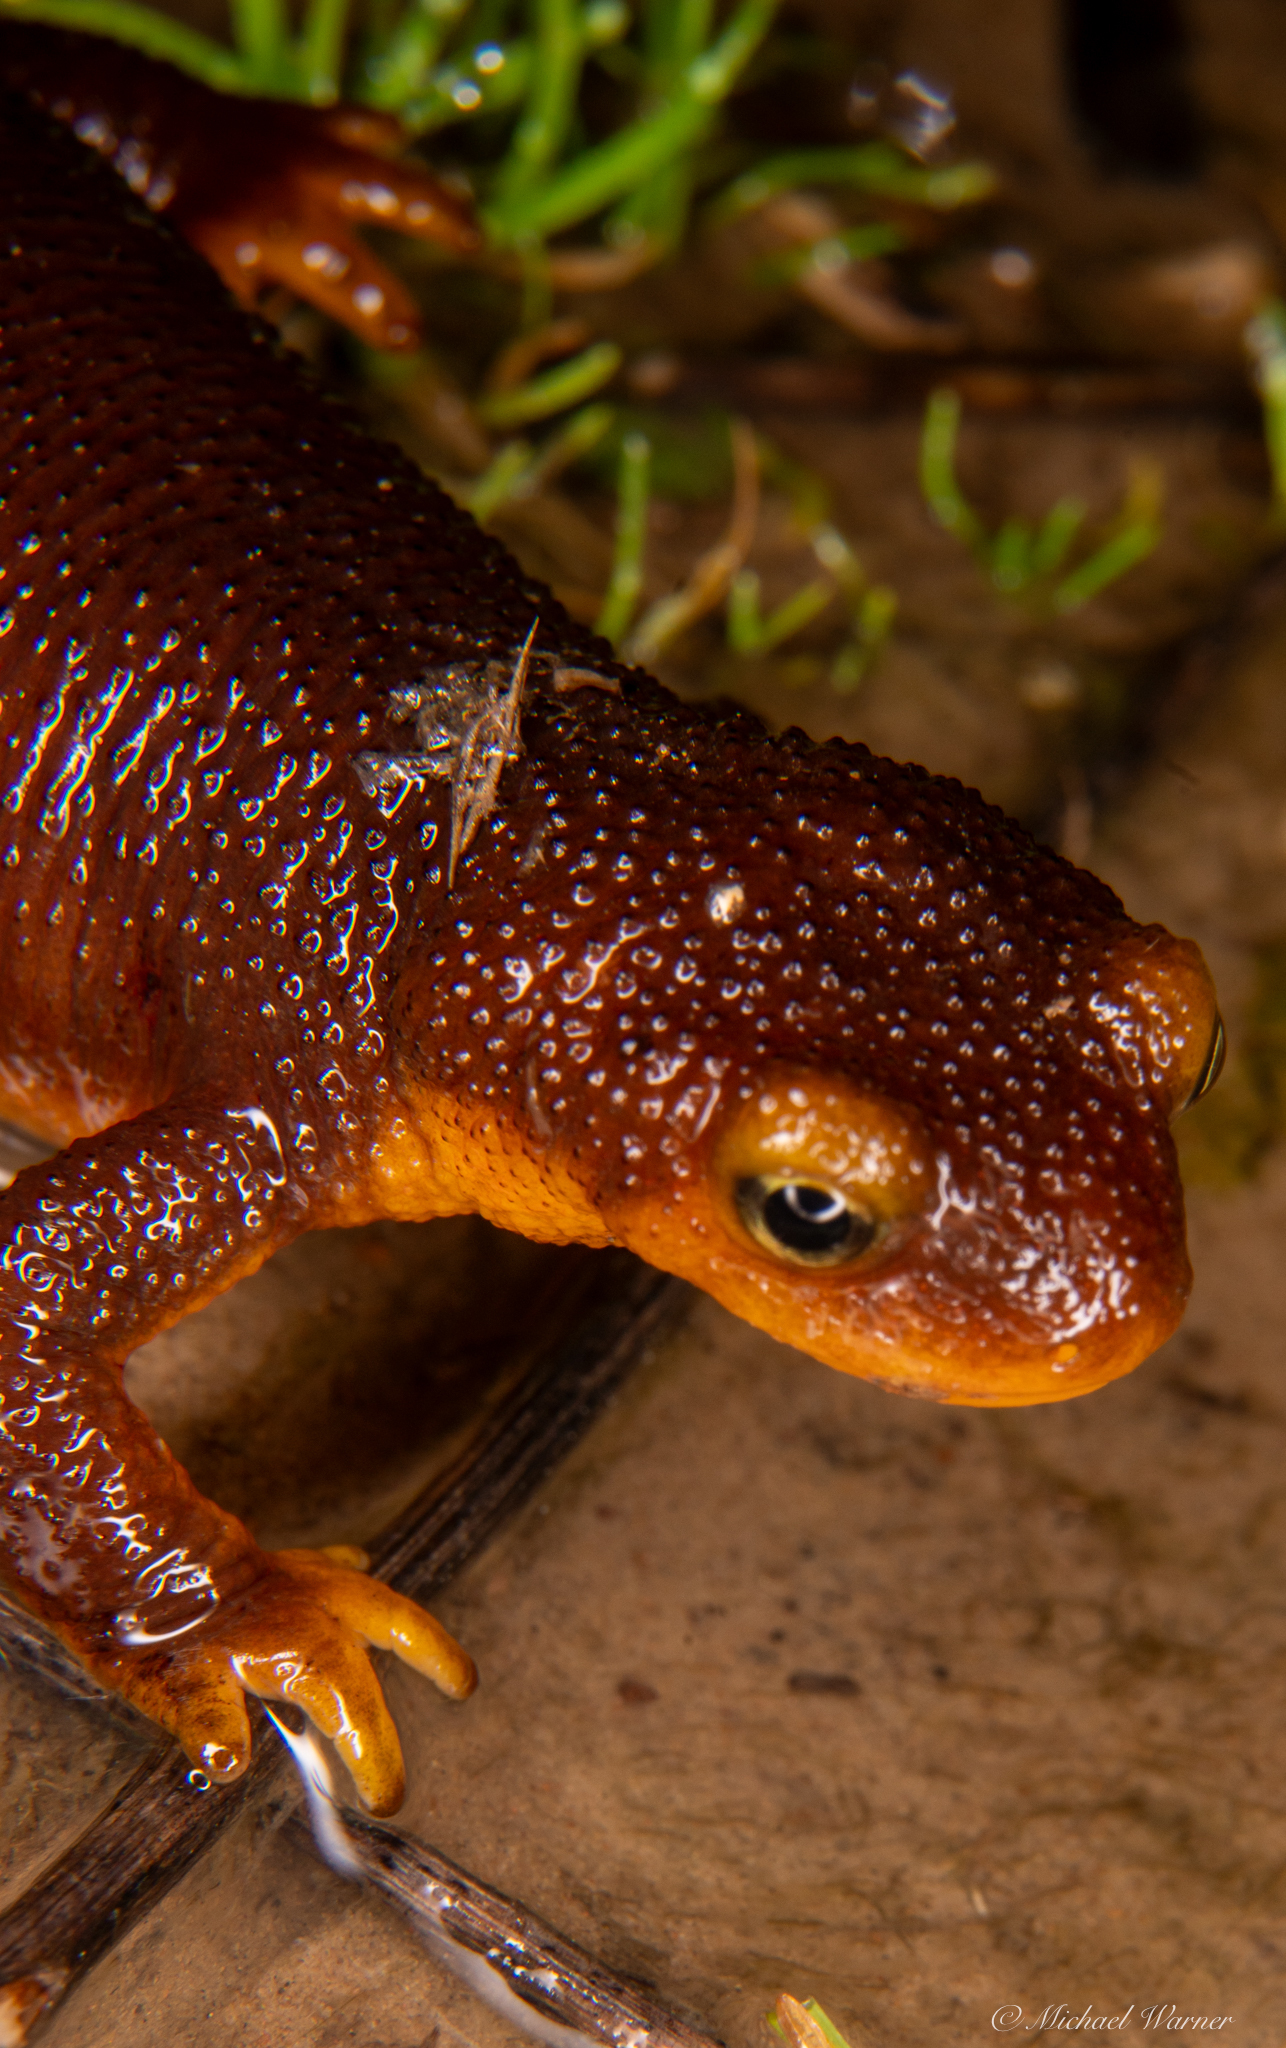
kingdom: Animalia
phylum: Chordata
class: Amphibia
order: Caudata
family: Salamandridae
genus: Taricha
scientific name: Taricha torosa
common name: California newt
